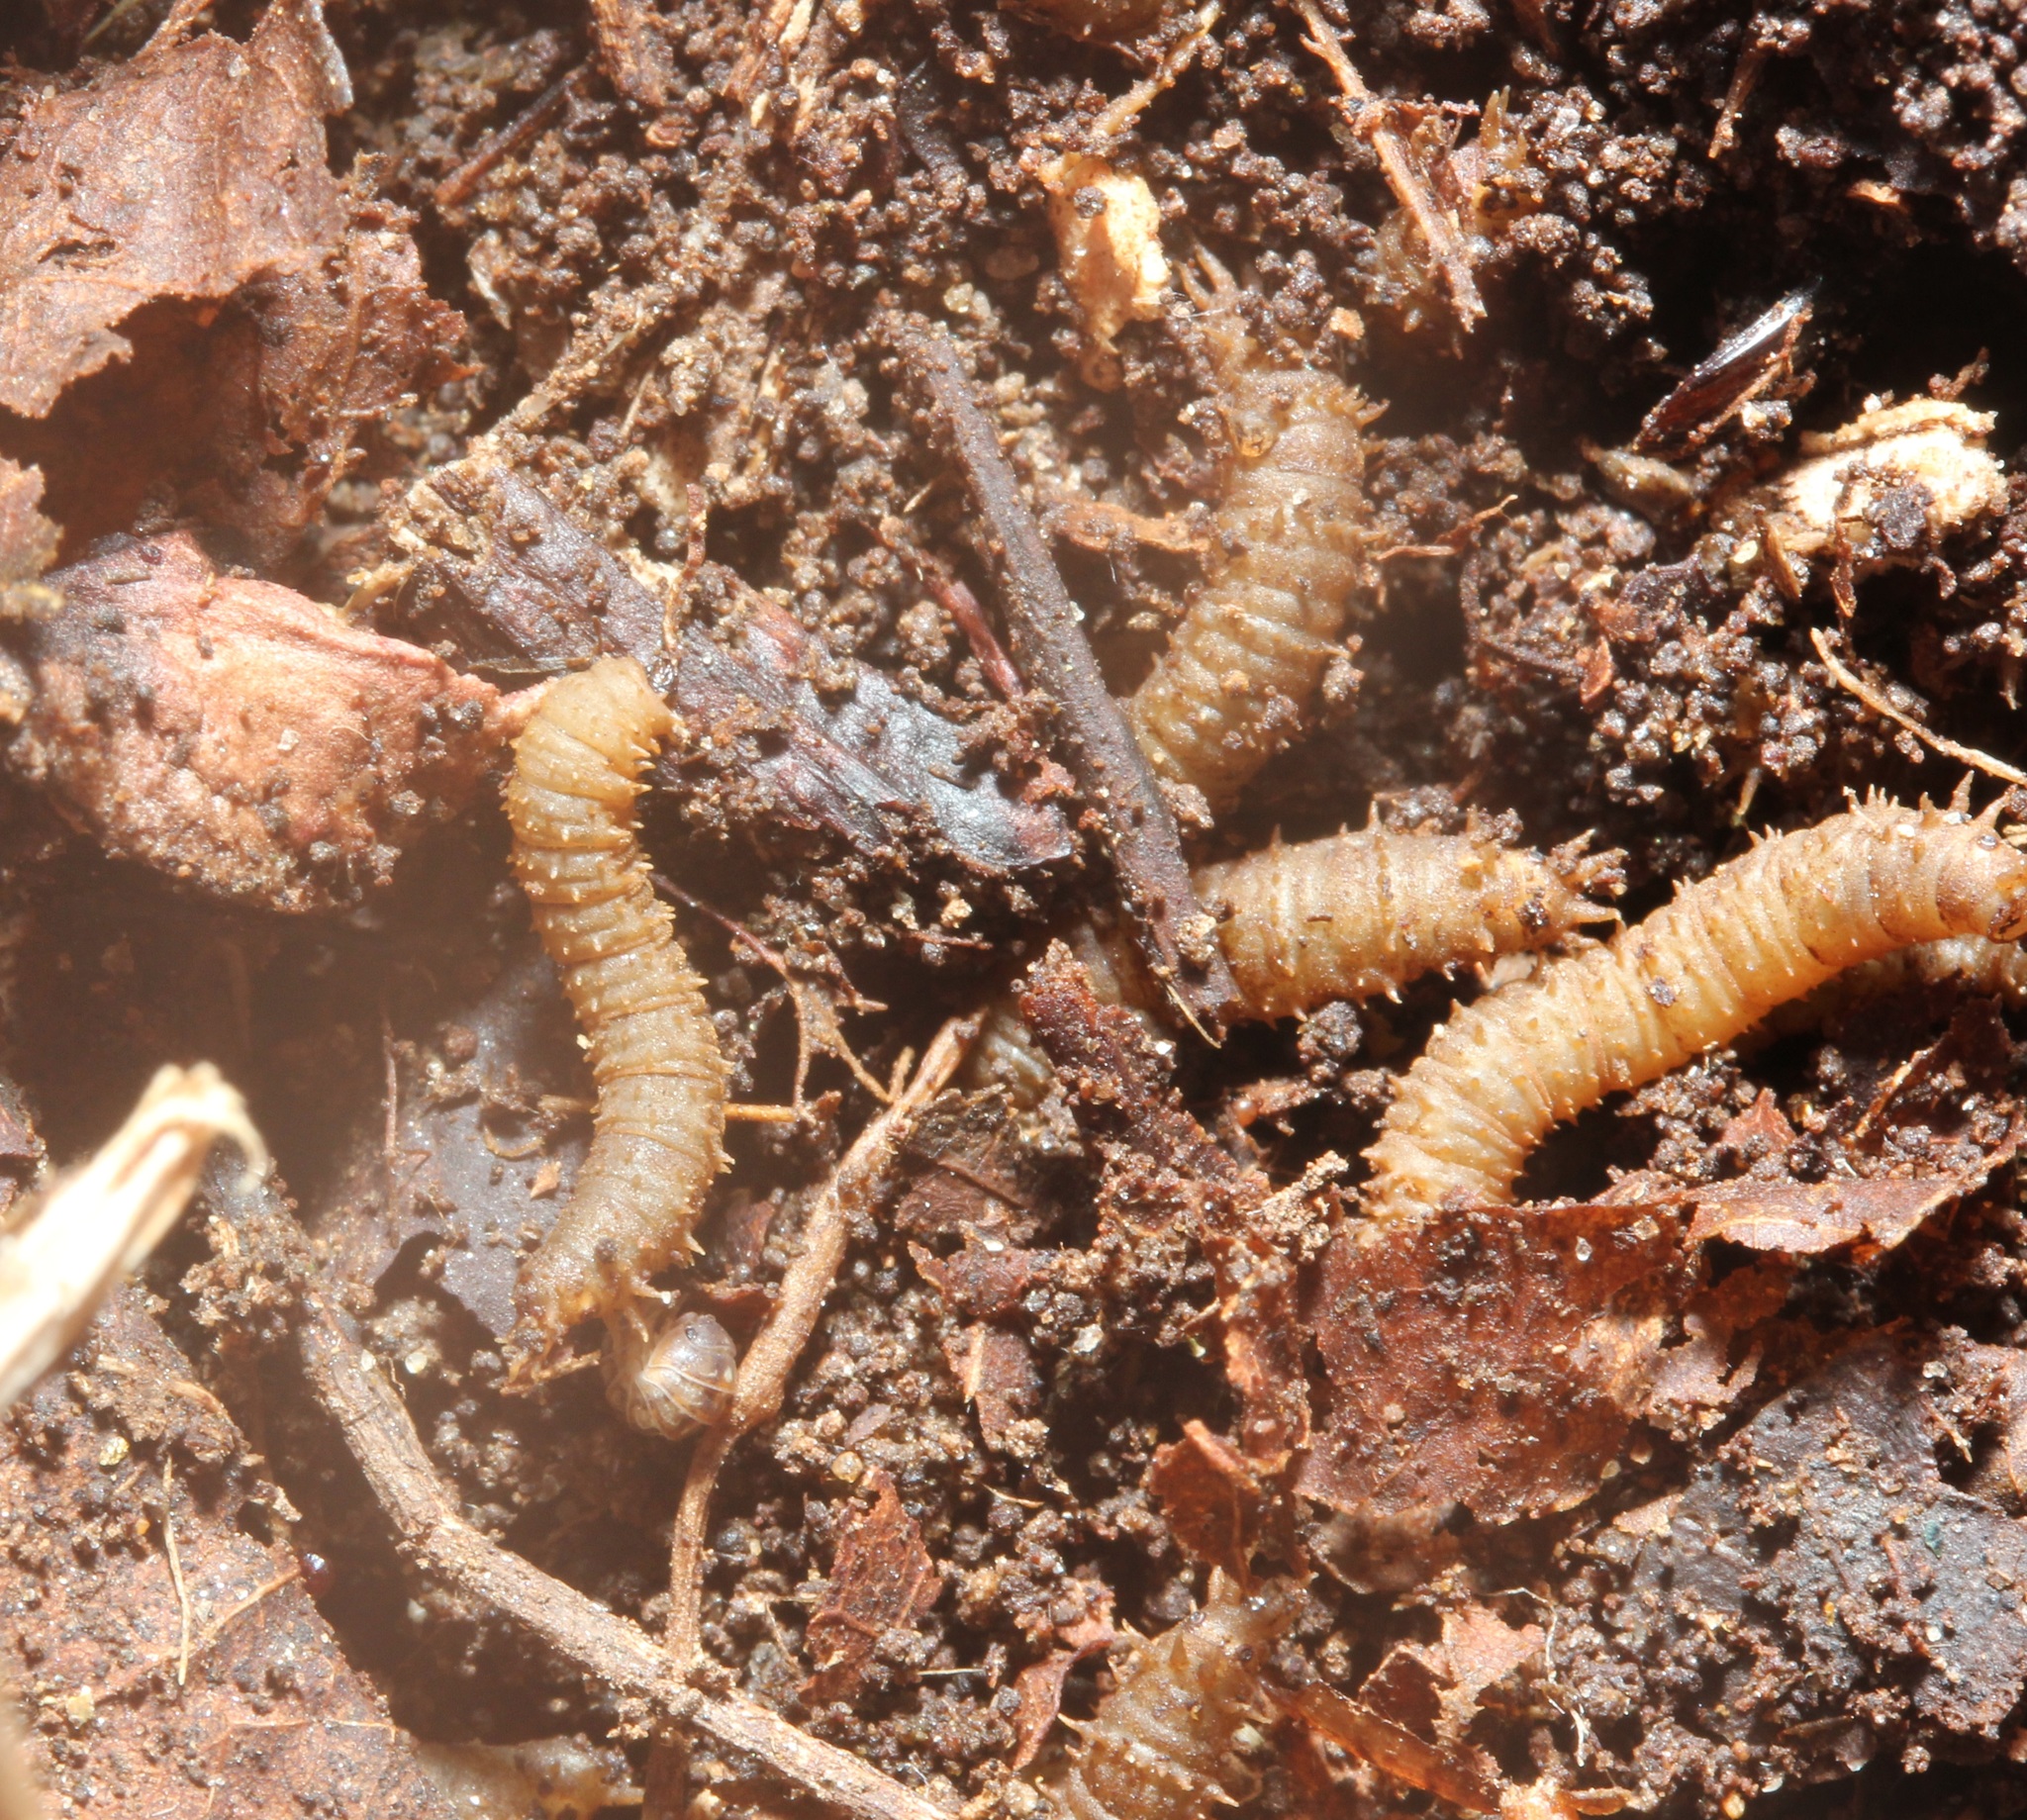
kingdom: Animalia
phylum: Arthropoda
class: Insecta
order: Diptera
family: Bibionidae
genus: Bibio
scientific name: Bibio
